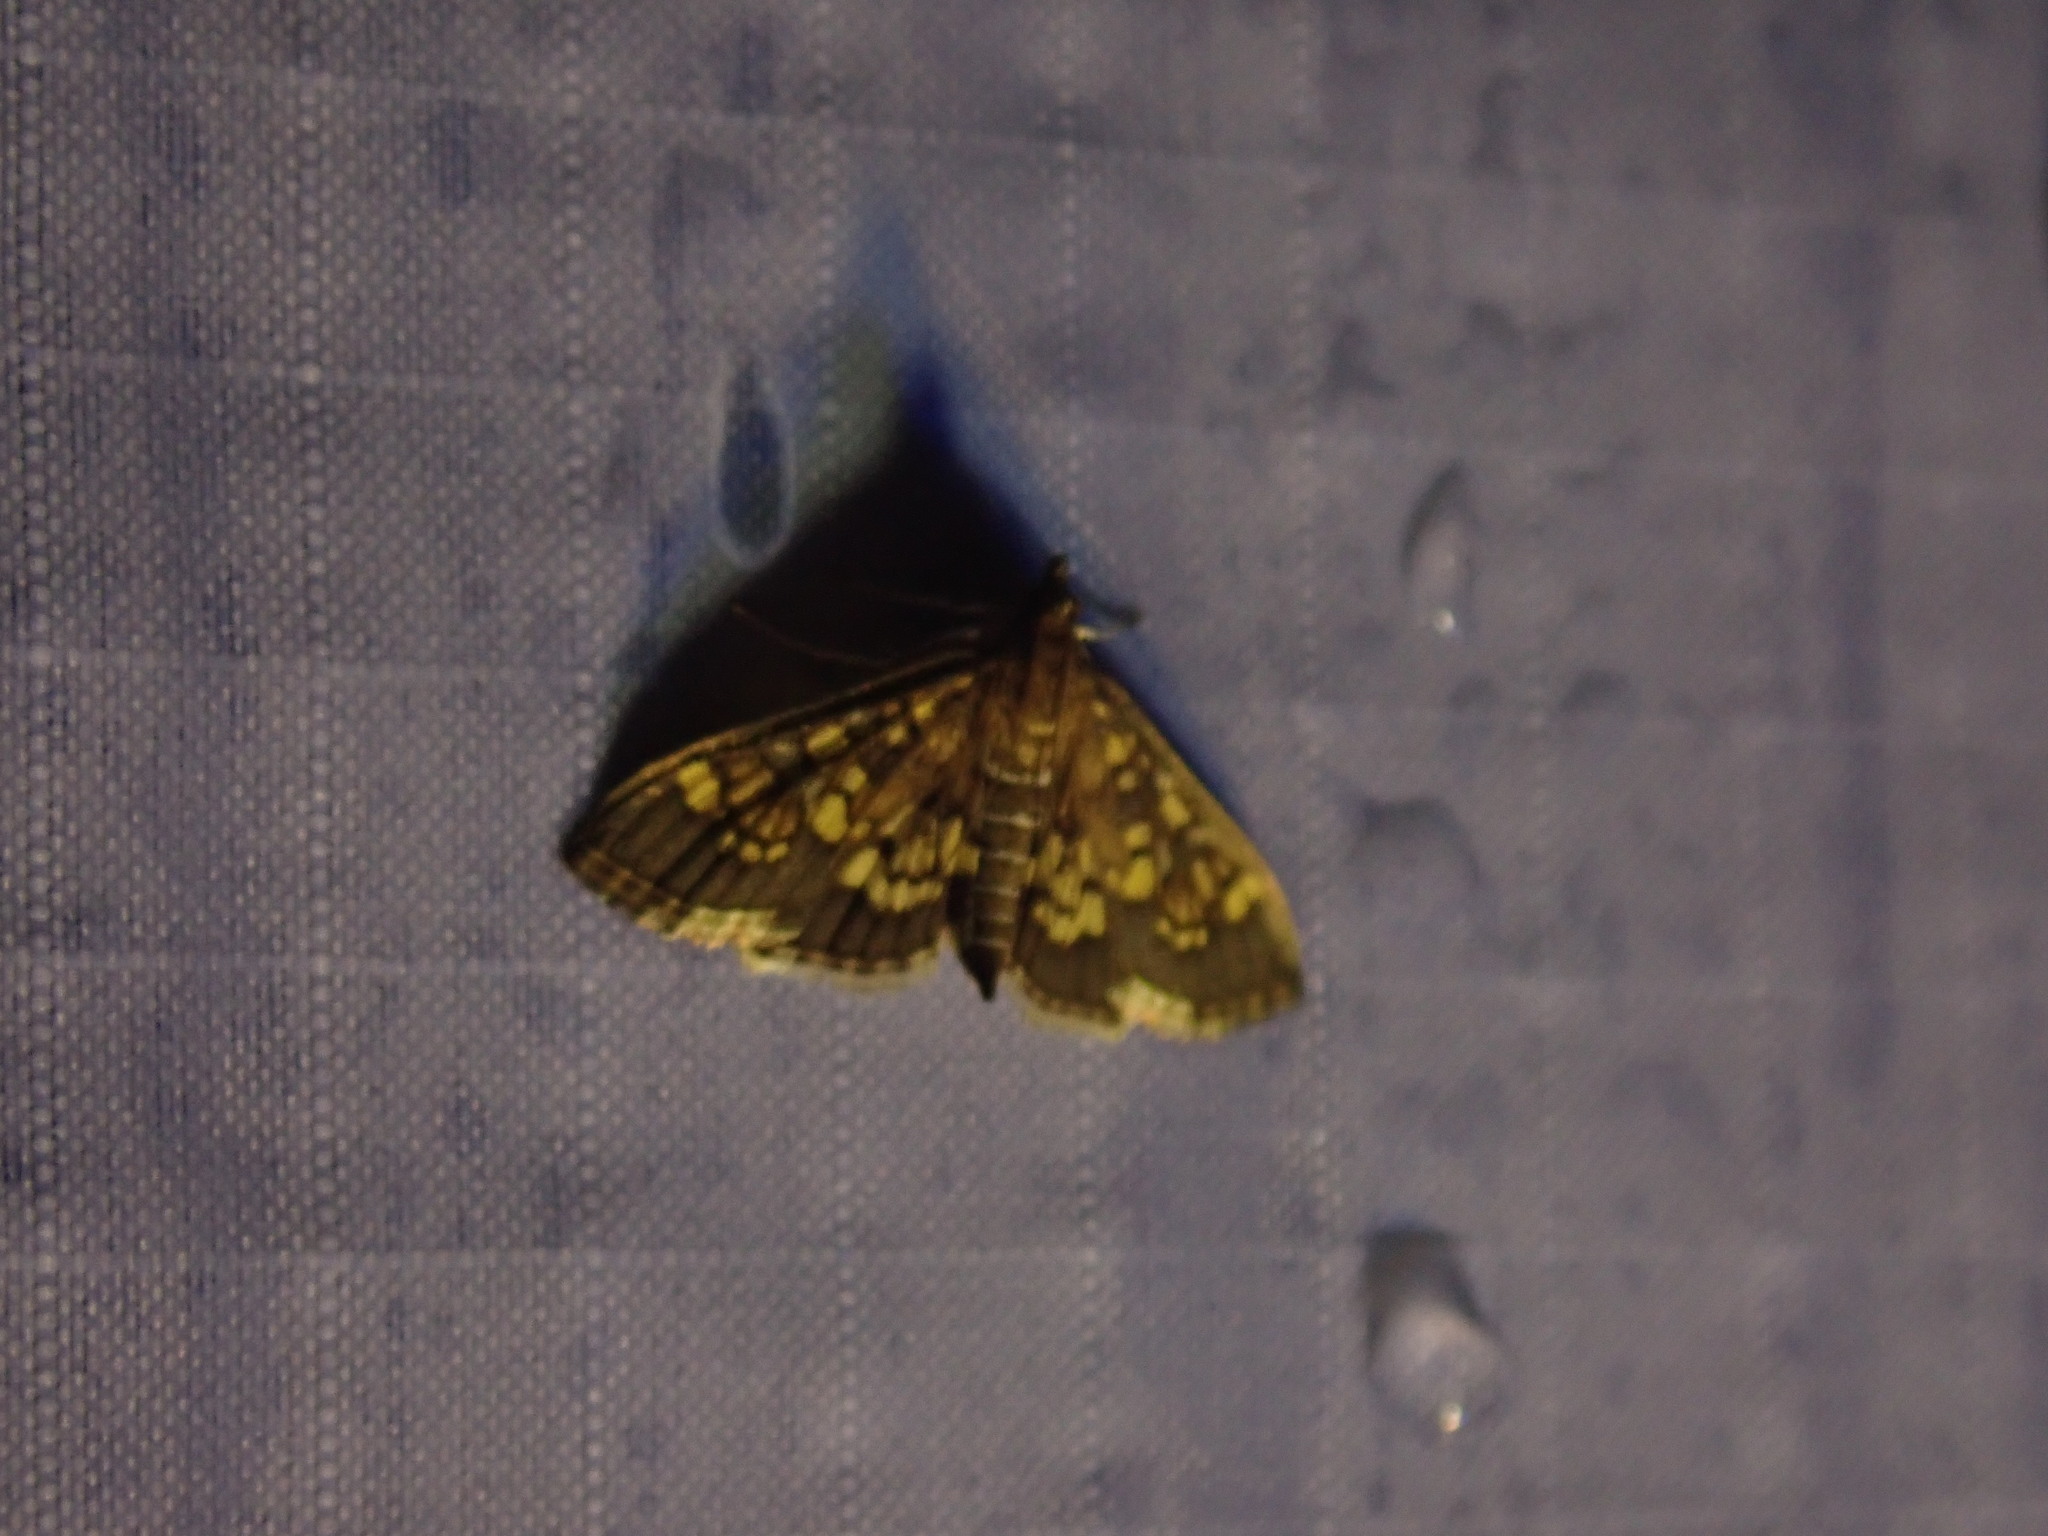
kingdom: Animalia
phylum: Arthropoda
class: Insecta
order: Lepidoptera
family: Crambidae
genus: Epipagis
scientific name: Epipagis adipaloides
